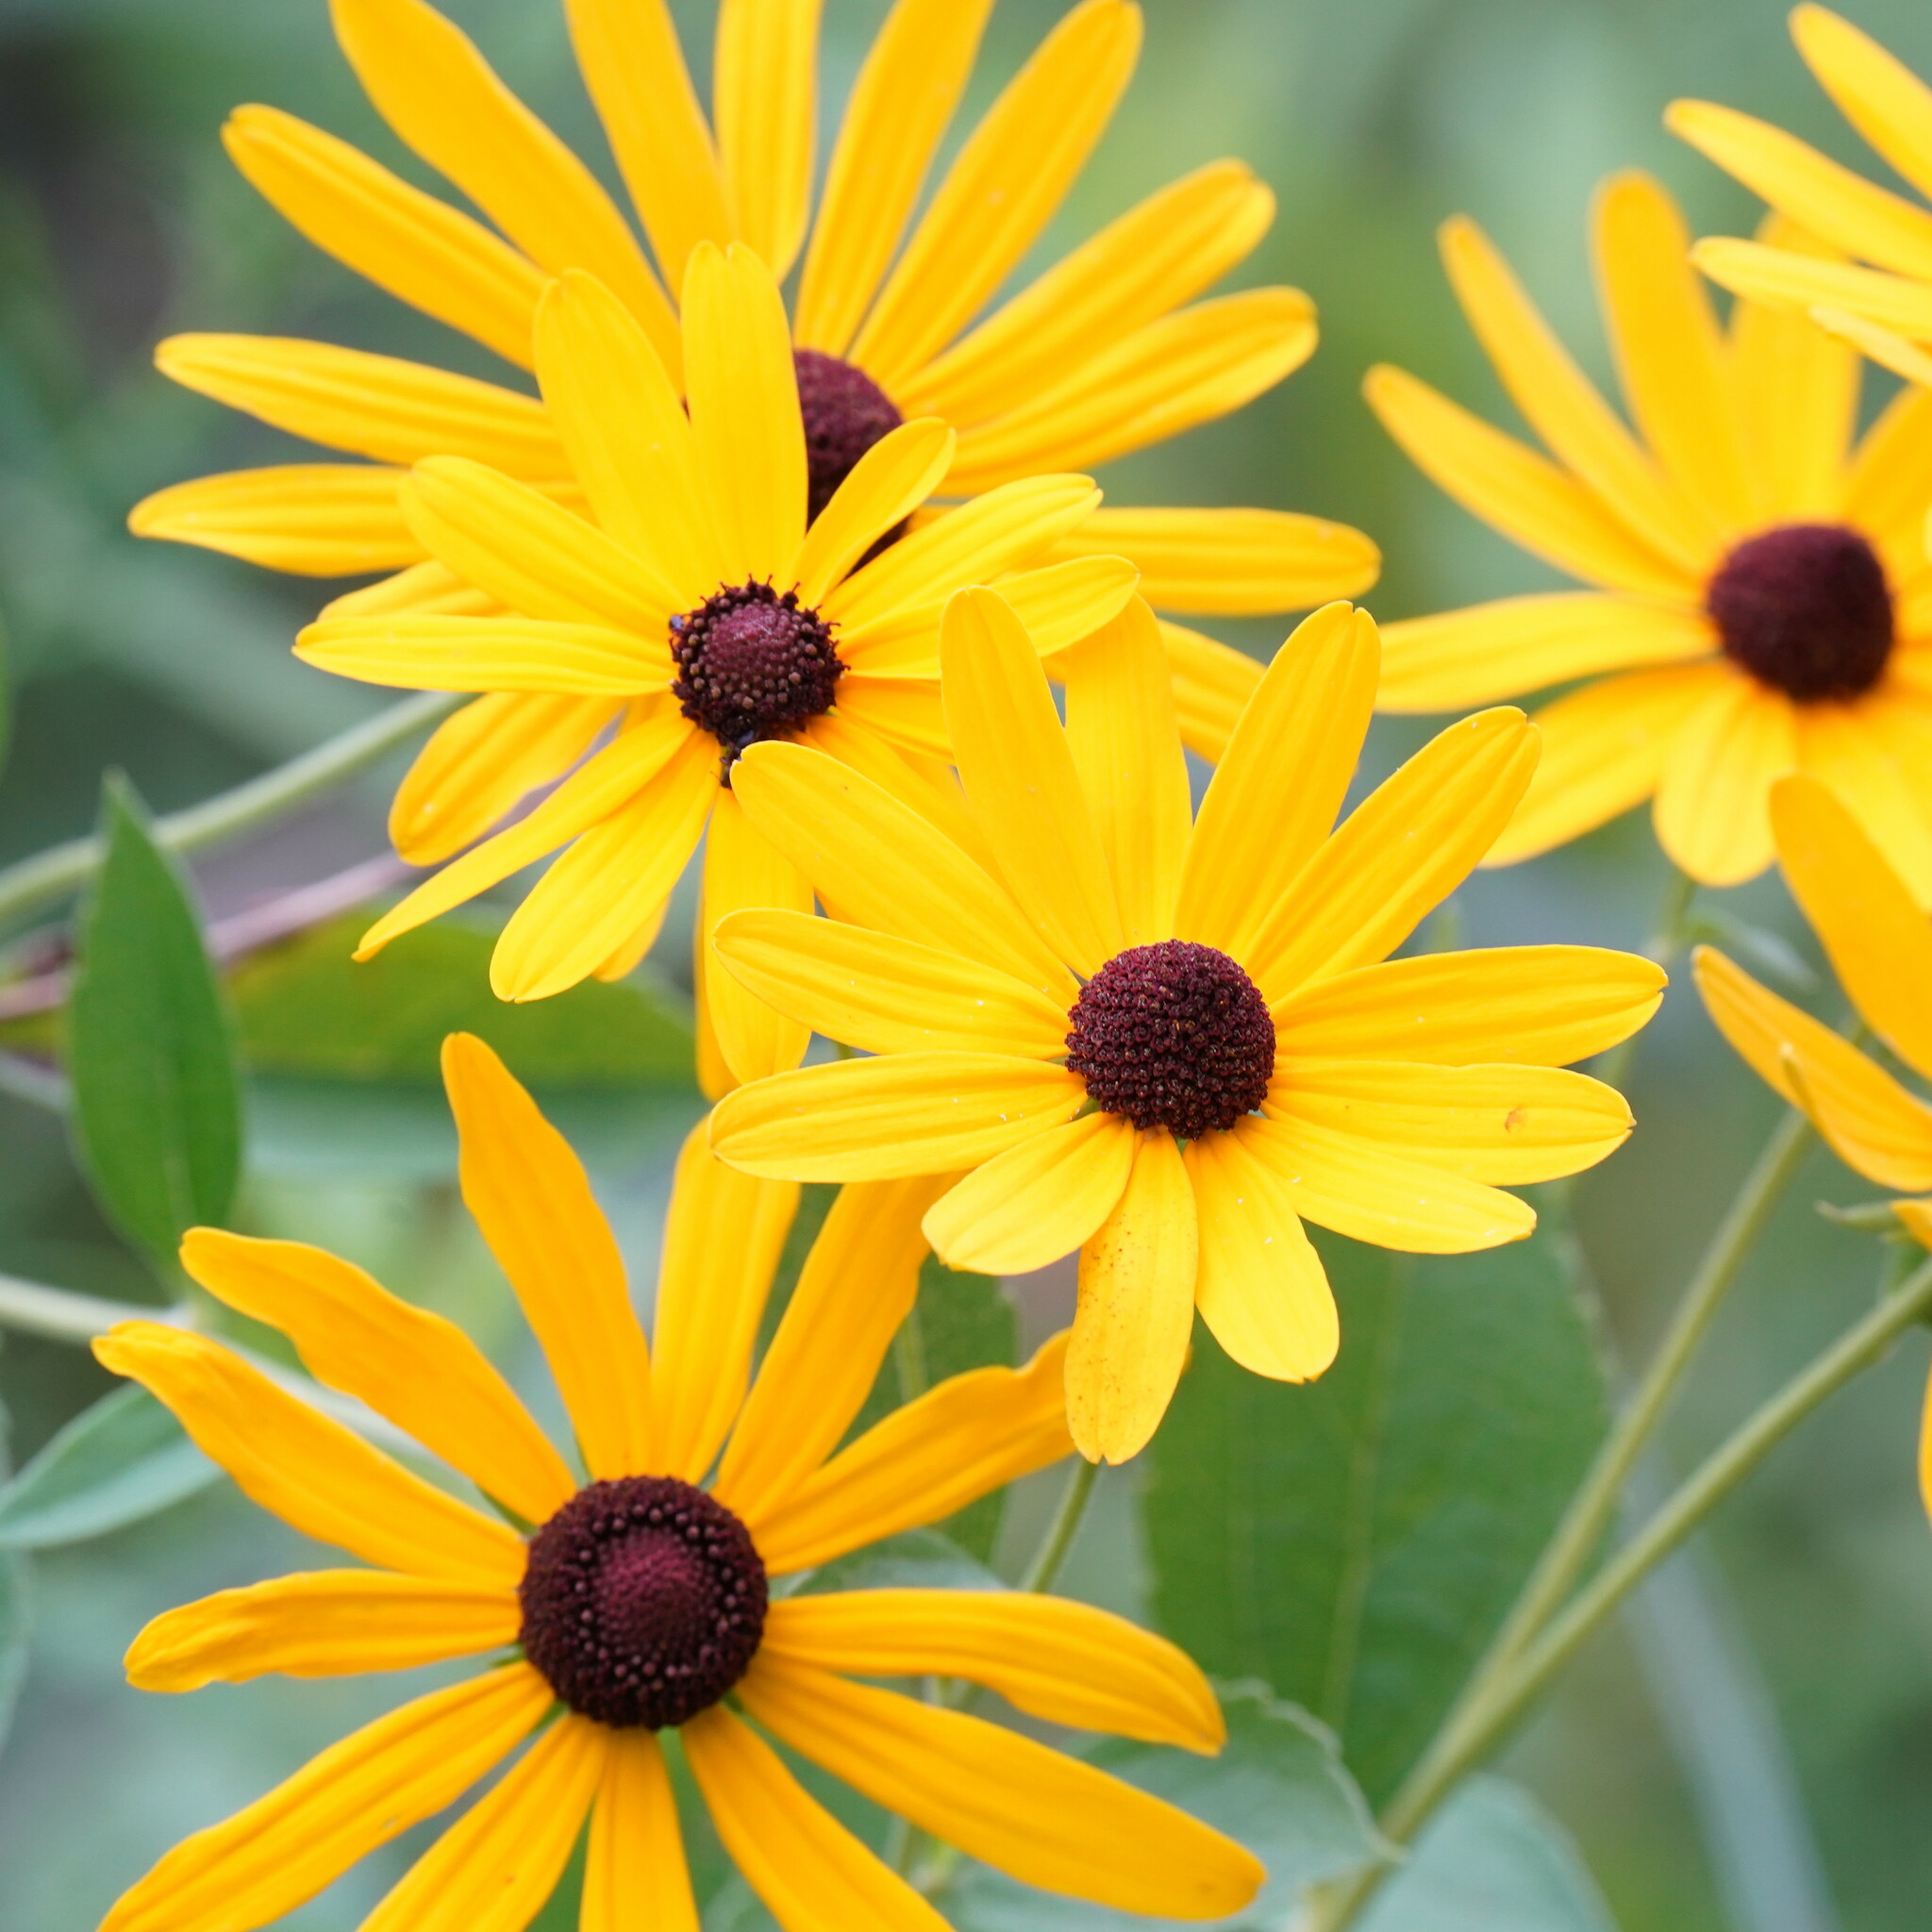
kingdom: Plantae
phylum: Tracheophyta
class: Magnoliopsida
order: Asterales
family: Asteraceae
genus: Rudbeckia
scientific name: Rudbeckia subtomentosa
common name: Sweet coneflower
